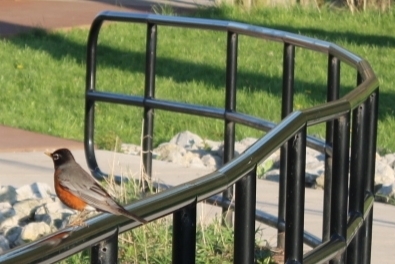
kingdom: Animalia
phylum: Chordata
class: Aves
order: Passeriformes
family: Turdidae
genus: Turdus
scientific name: Turdus migratorius
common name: American robin
